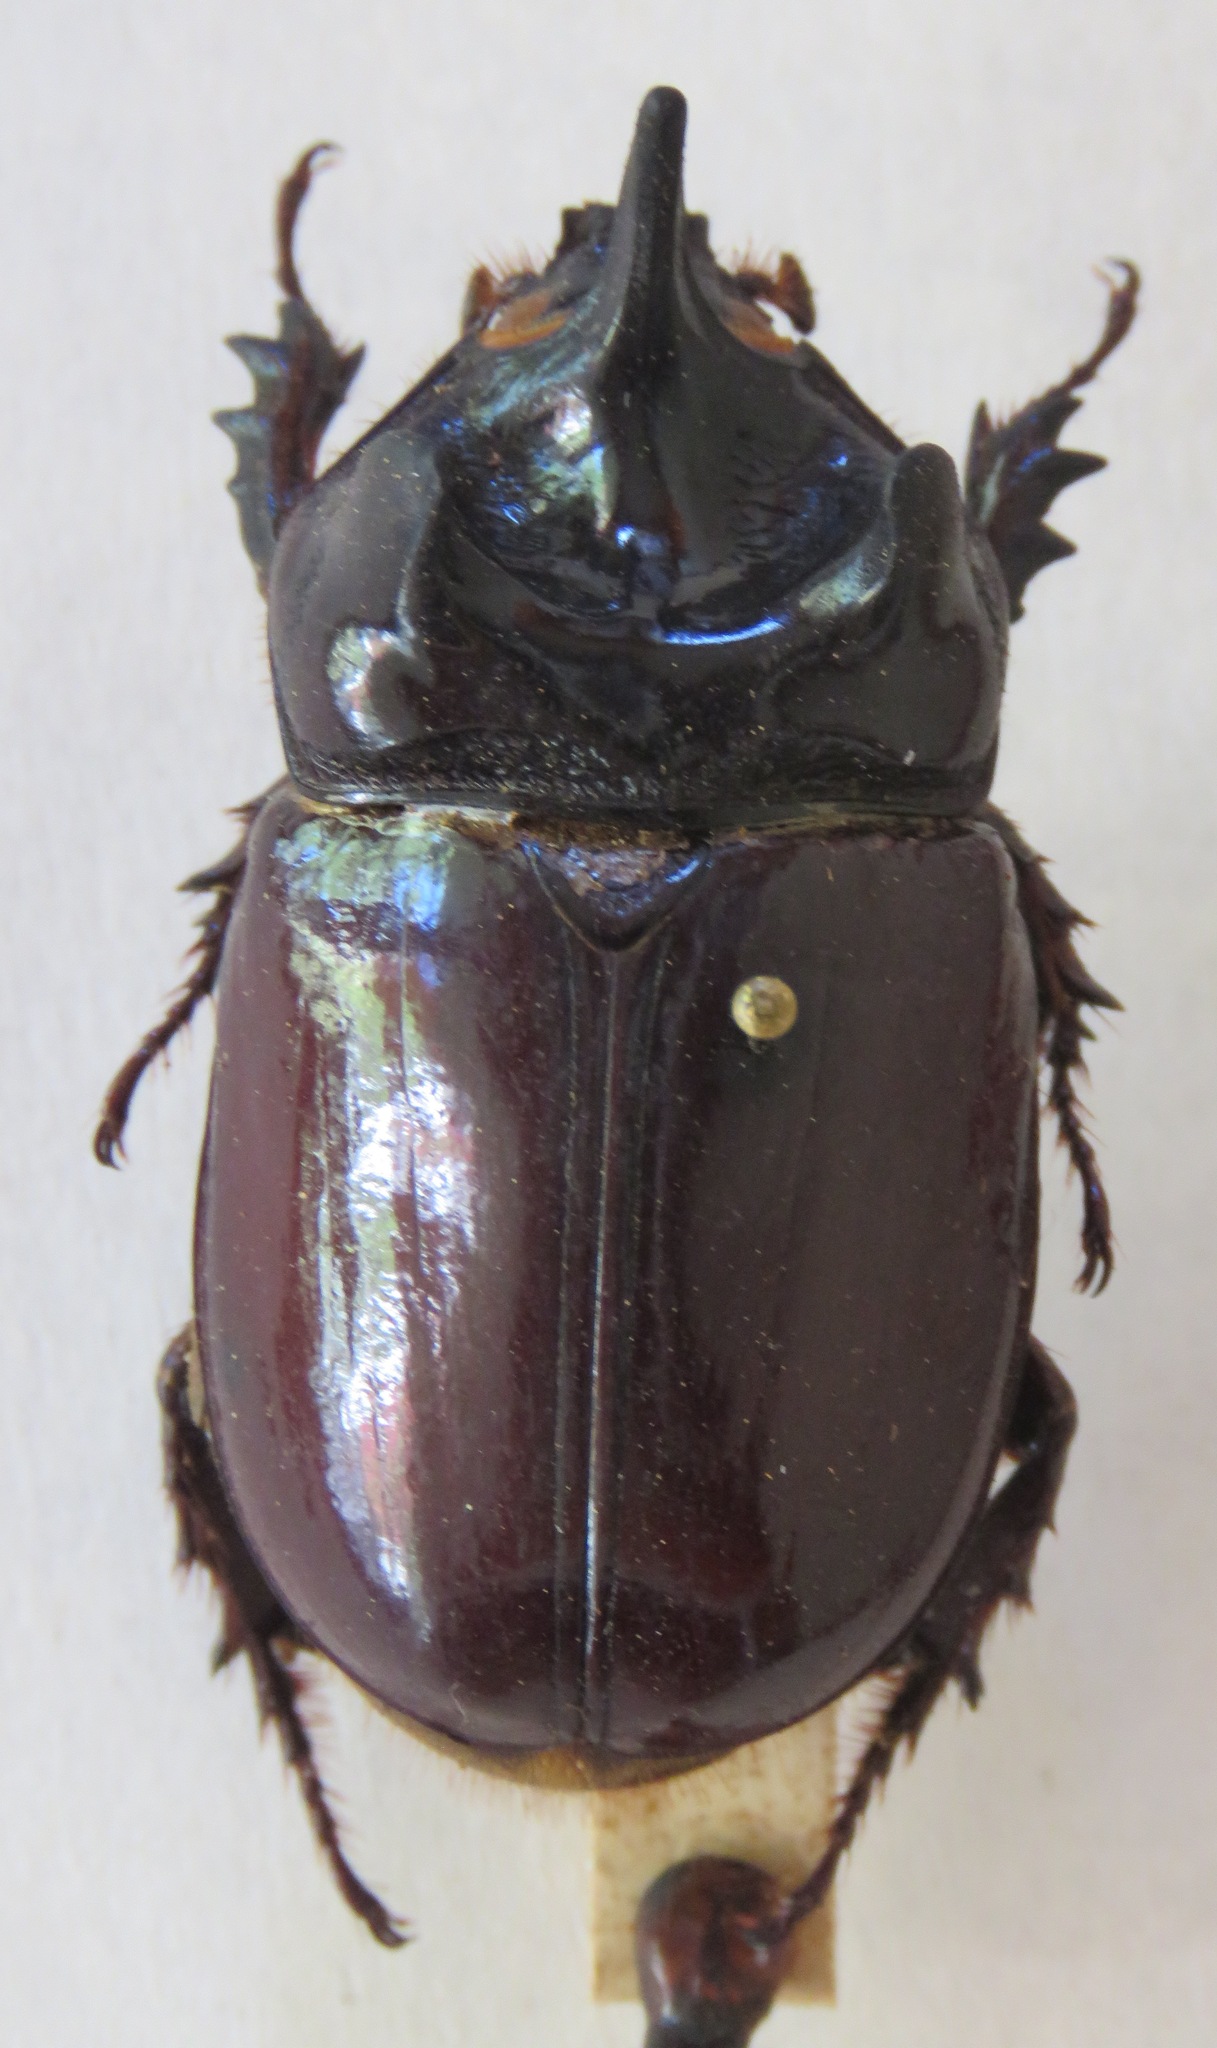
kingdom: Animalia
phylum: Arthropoda
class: Insecta
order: Coleoptera
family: Scarabaeidae
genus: Strategus
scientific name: Strategus aloeus
